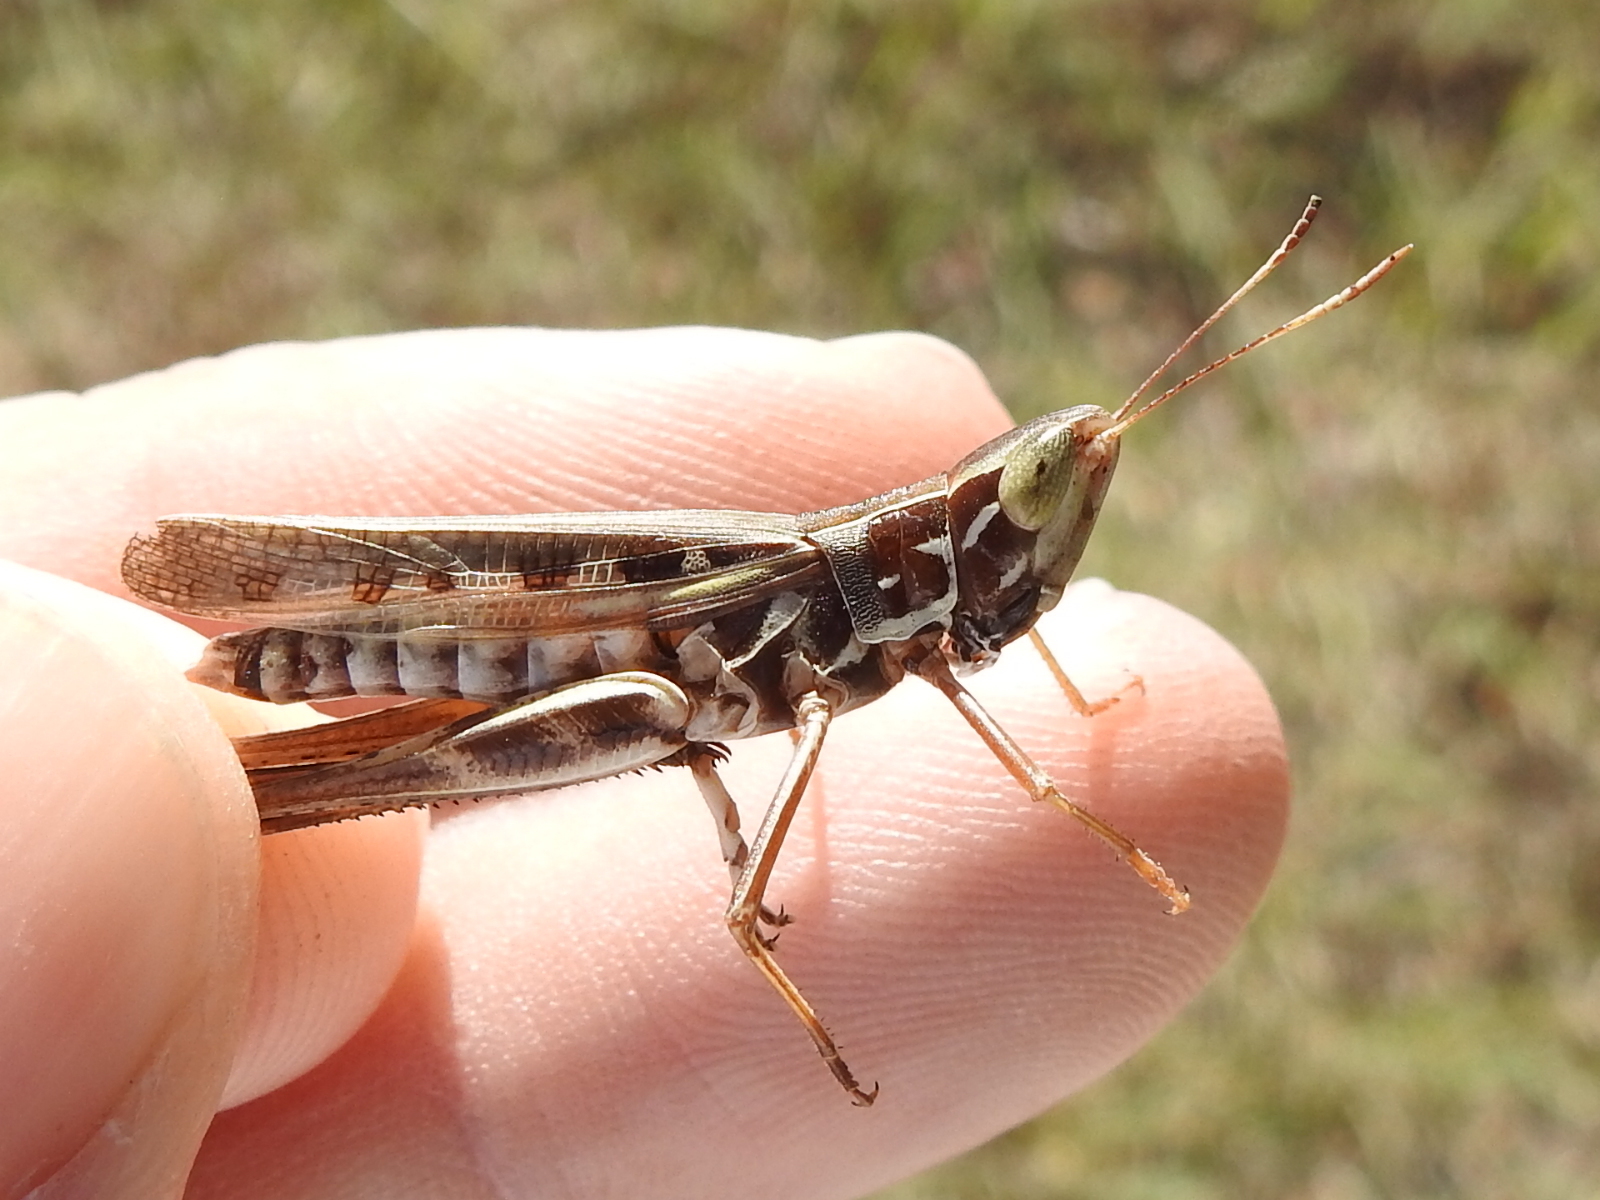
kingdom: Animalia
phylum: Arthropoda
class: Insecta
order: Orthoptera
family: Acrididae
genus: Syrbula
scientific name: Syrbula admirabilis
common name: Handsome grasshopper
